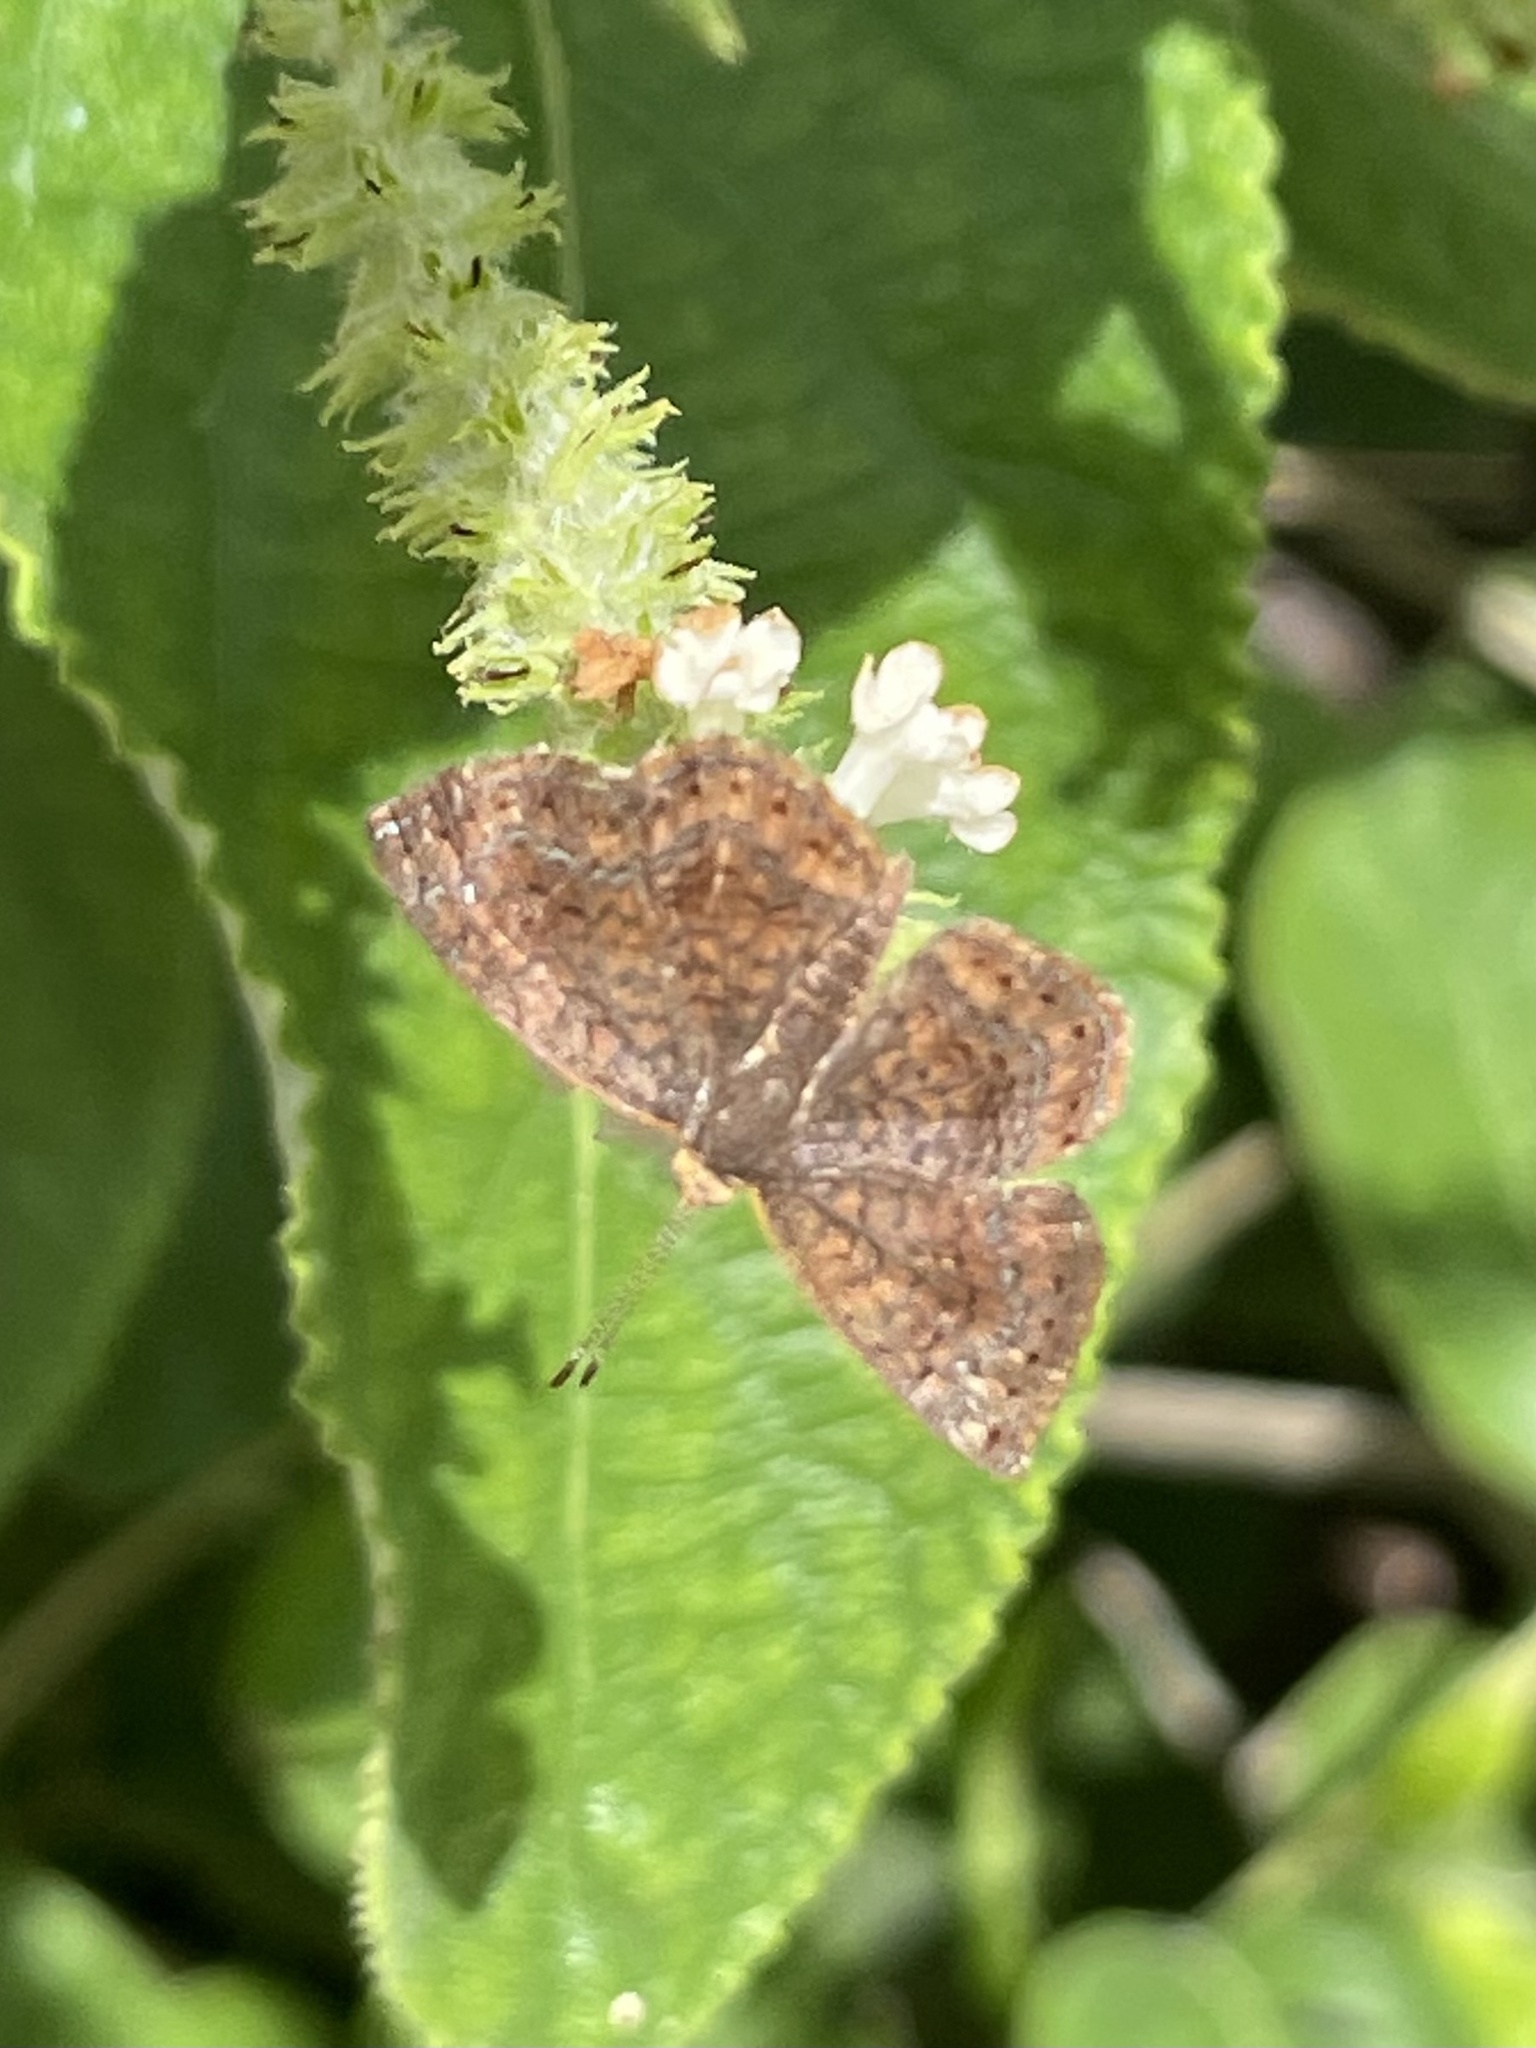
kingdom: Animalia
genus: Calephelis
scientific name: Calephelis perditalis
